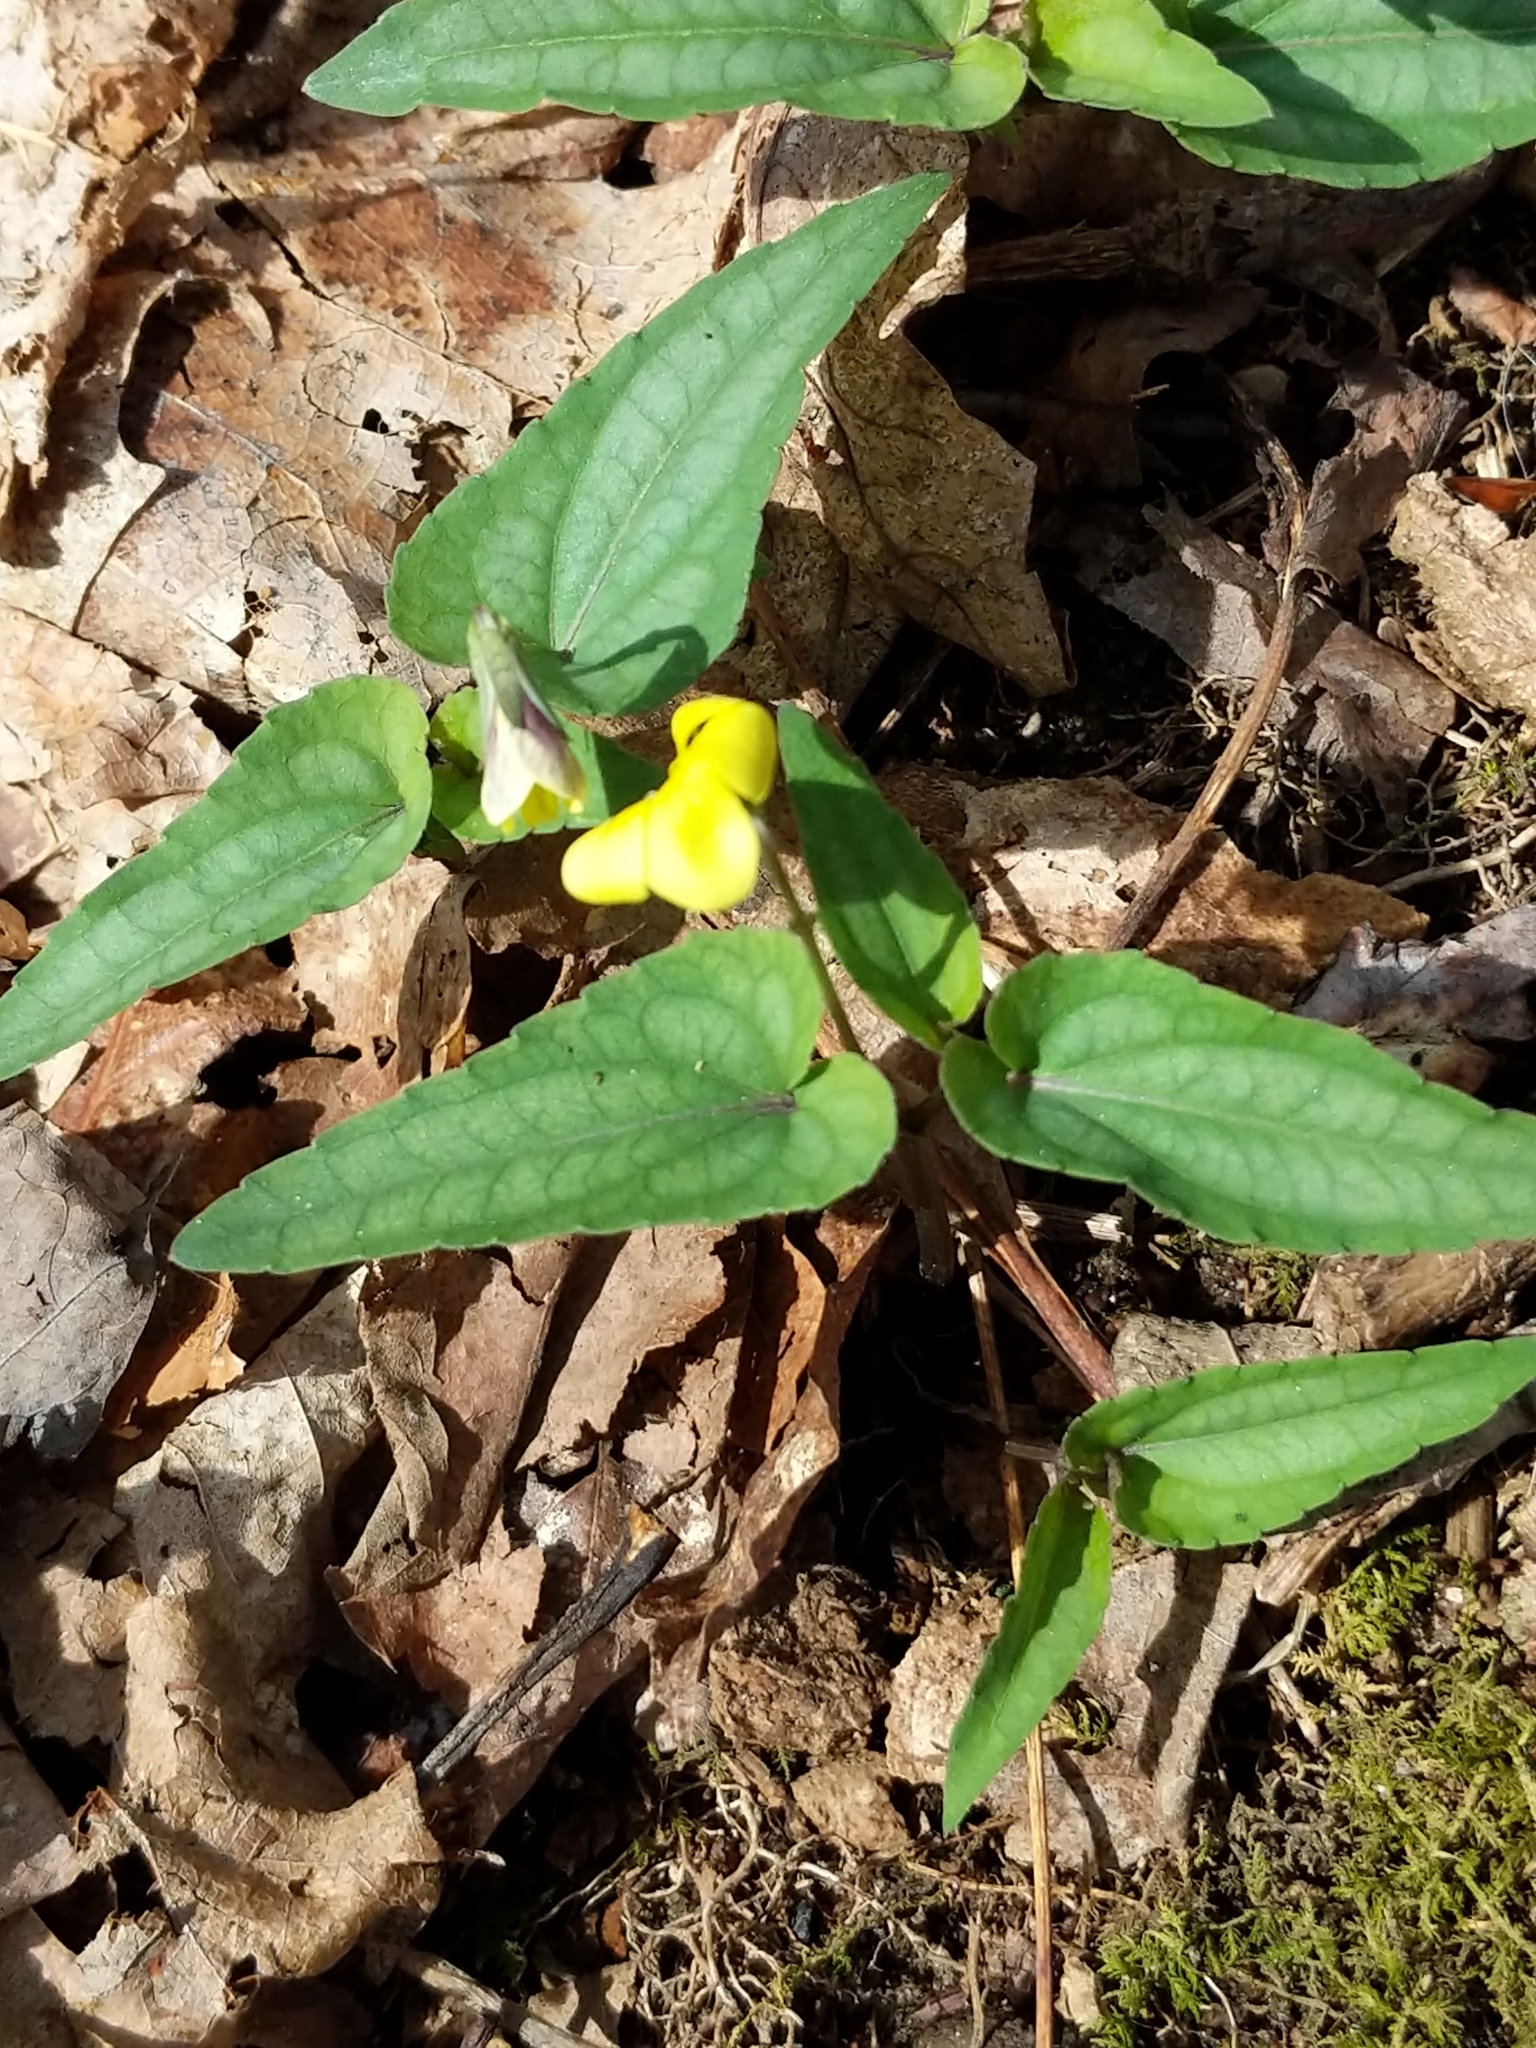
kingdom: Plantae
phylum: Tracheophyta
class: Magnoliopsida
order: Malpighiales
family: Violaceae
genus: Viola
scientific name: Viola hastata
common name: Spear-leaf violet
